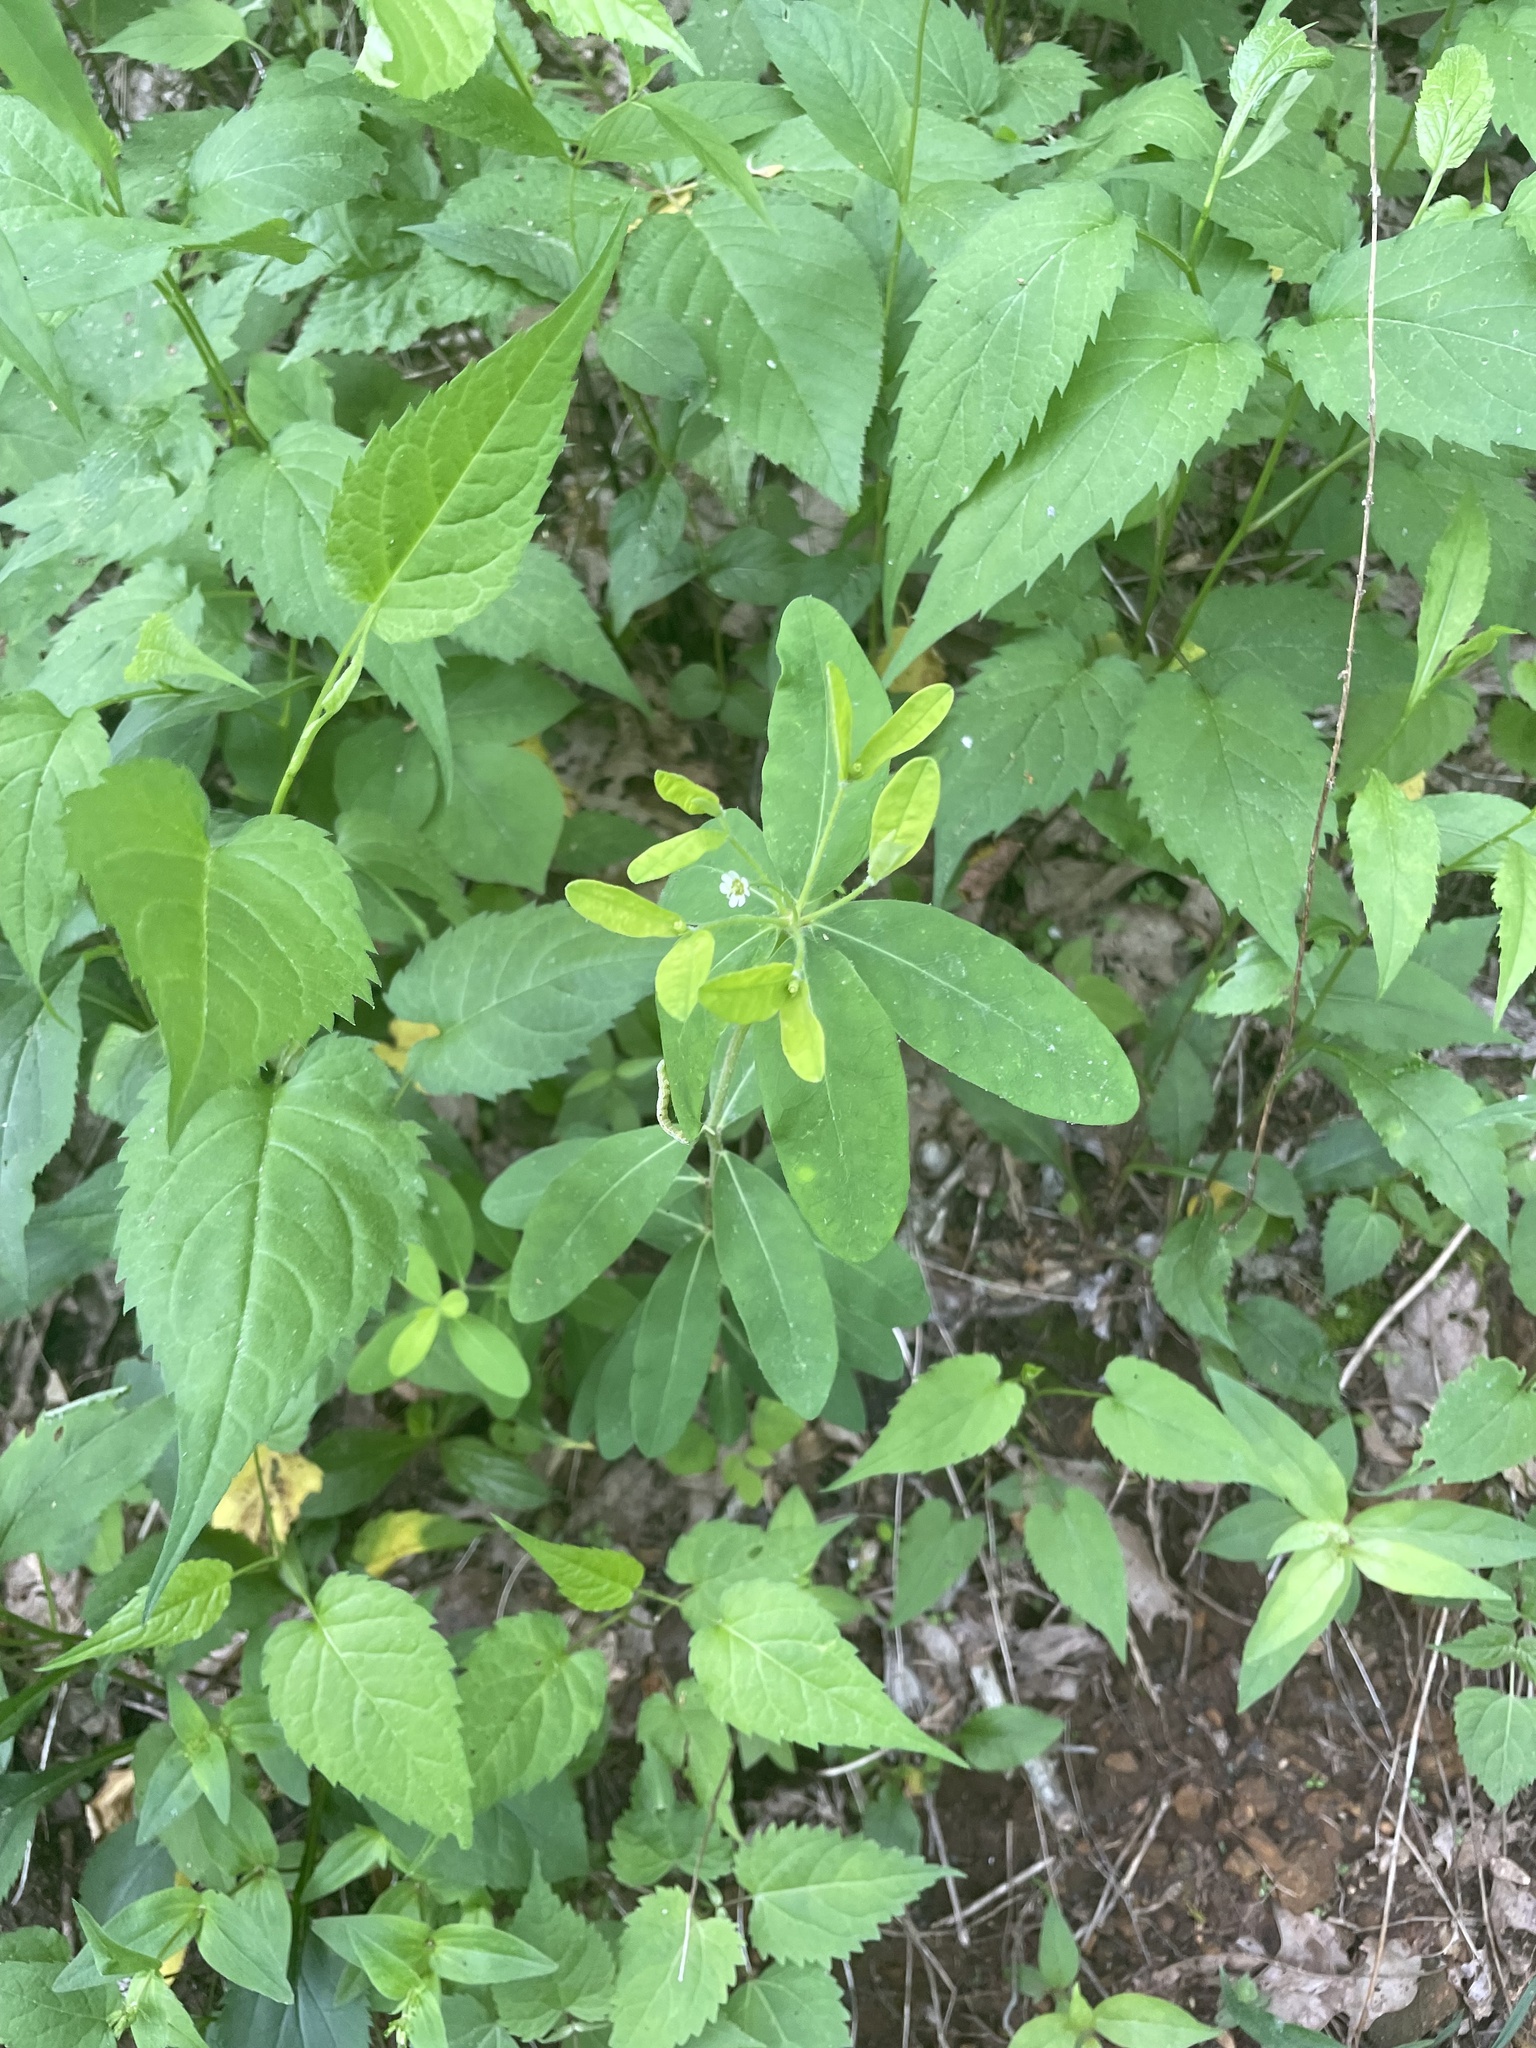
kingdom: Plantae
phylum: Tracheophyta
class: Magnoliopsida
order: Malpighiales
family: Euphorbiaceae
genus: Euphorbia
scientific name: Euphorbia pubentissima
